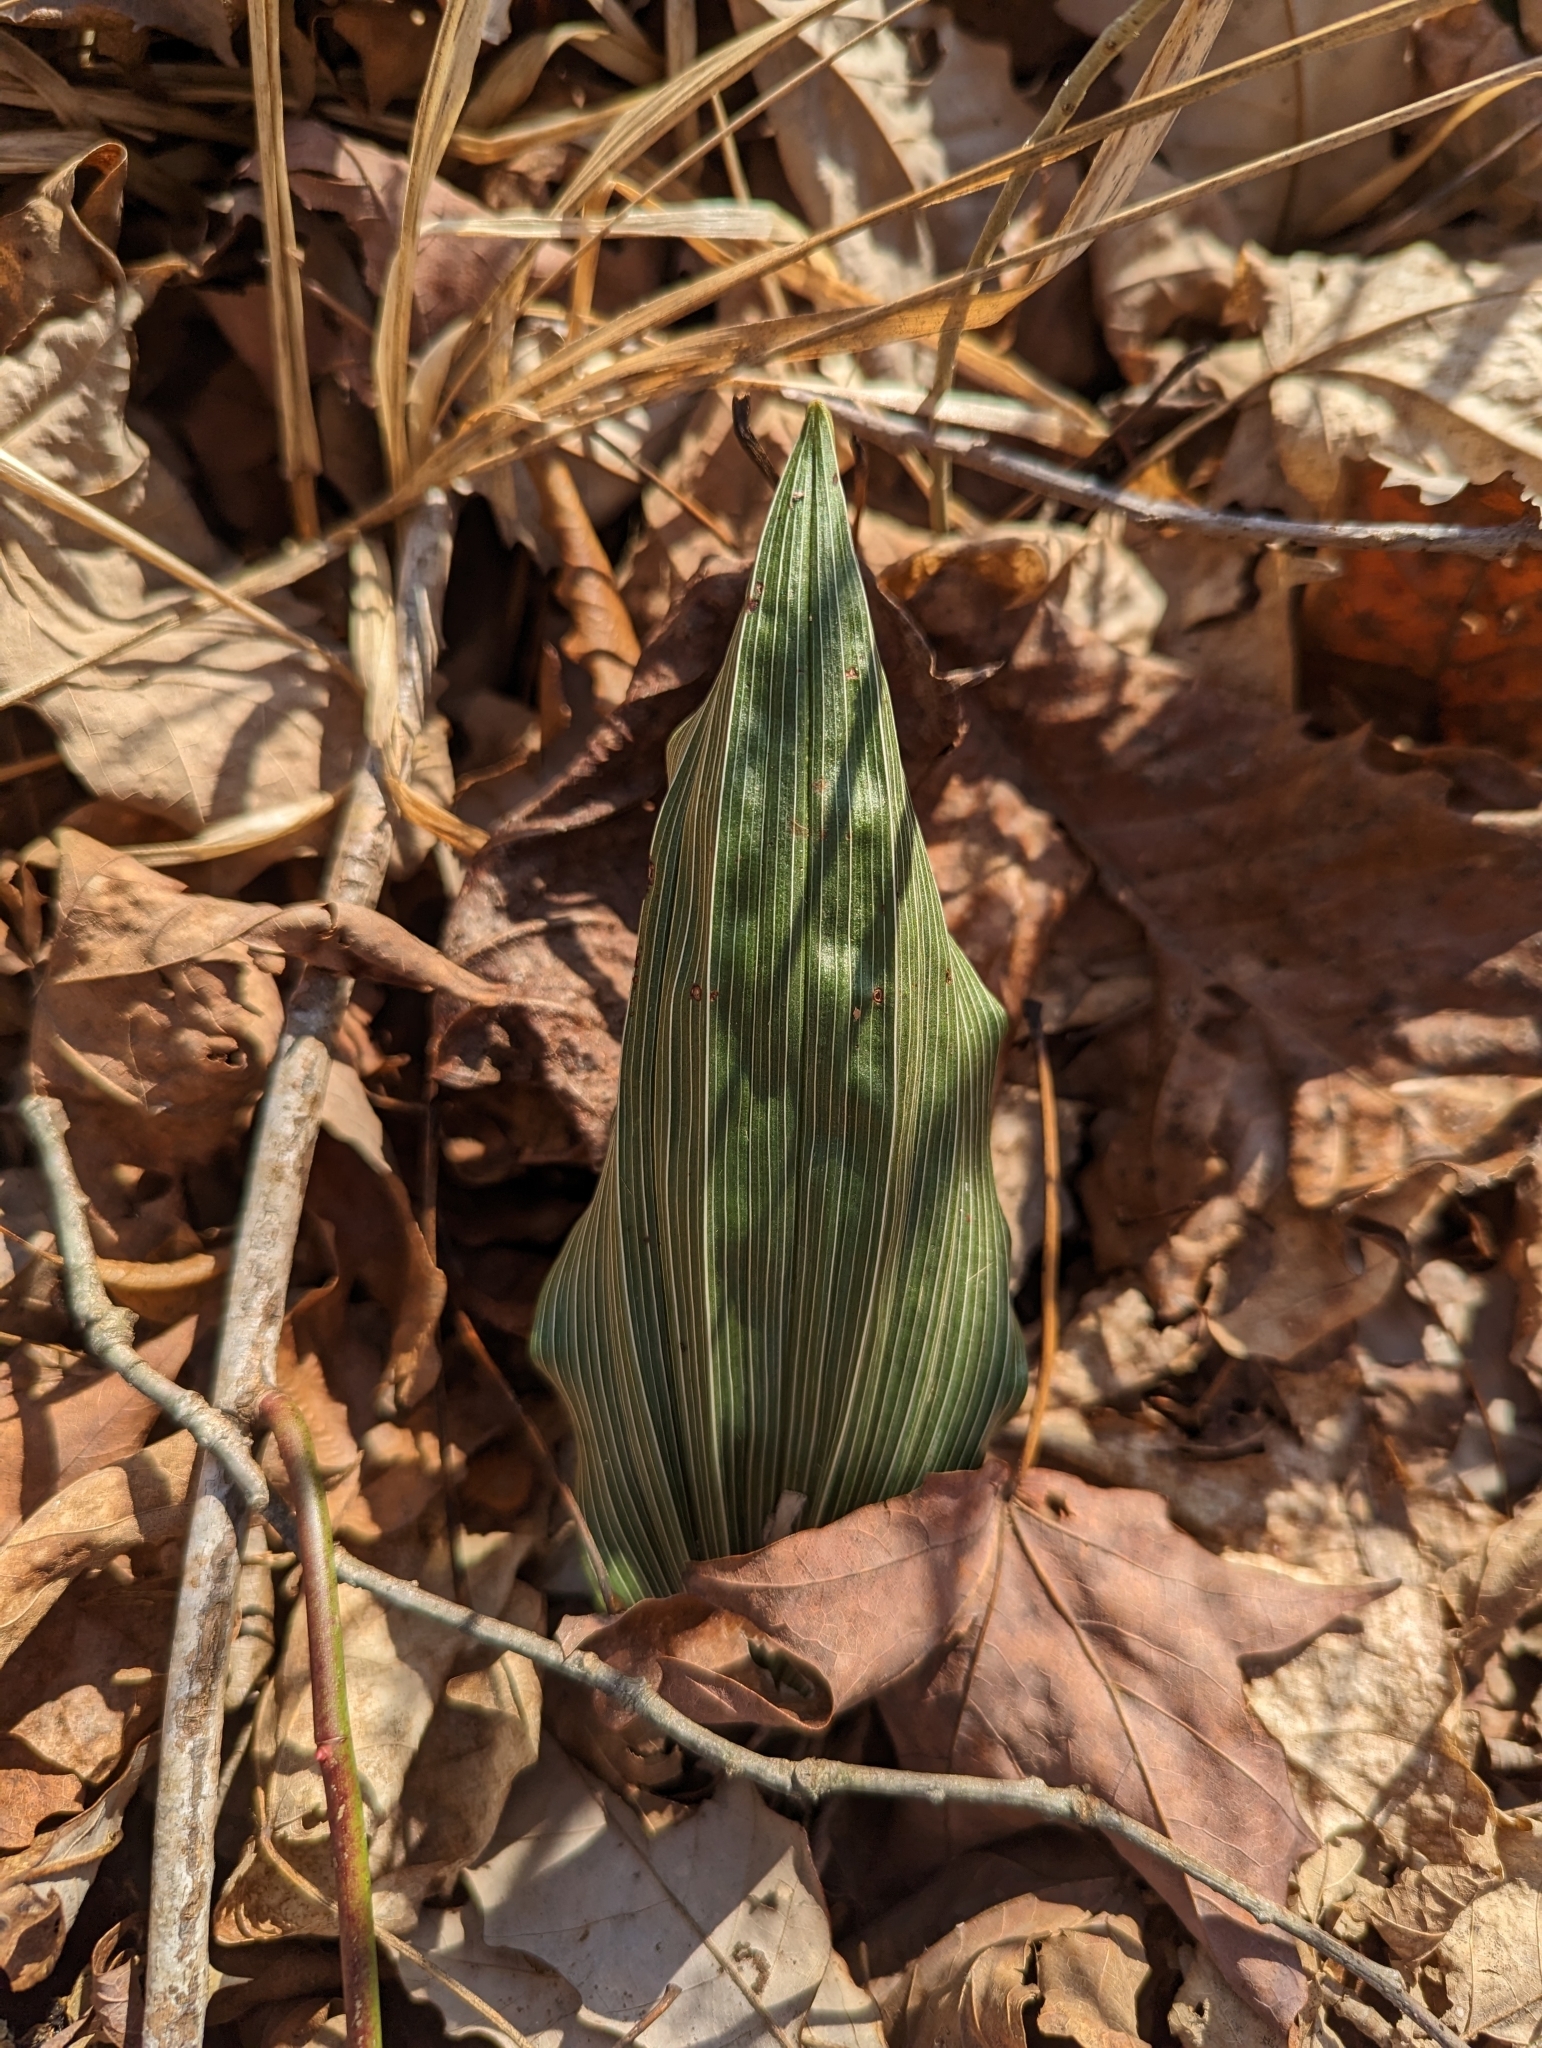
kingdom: Plantae
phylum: Tracheophyta
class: Liliopsida
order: Asparagales
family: Orchidaceae
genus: Aplectrum
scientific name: Aplectrum hyemale
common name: Adam-and-eve
